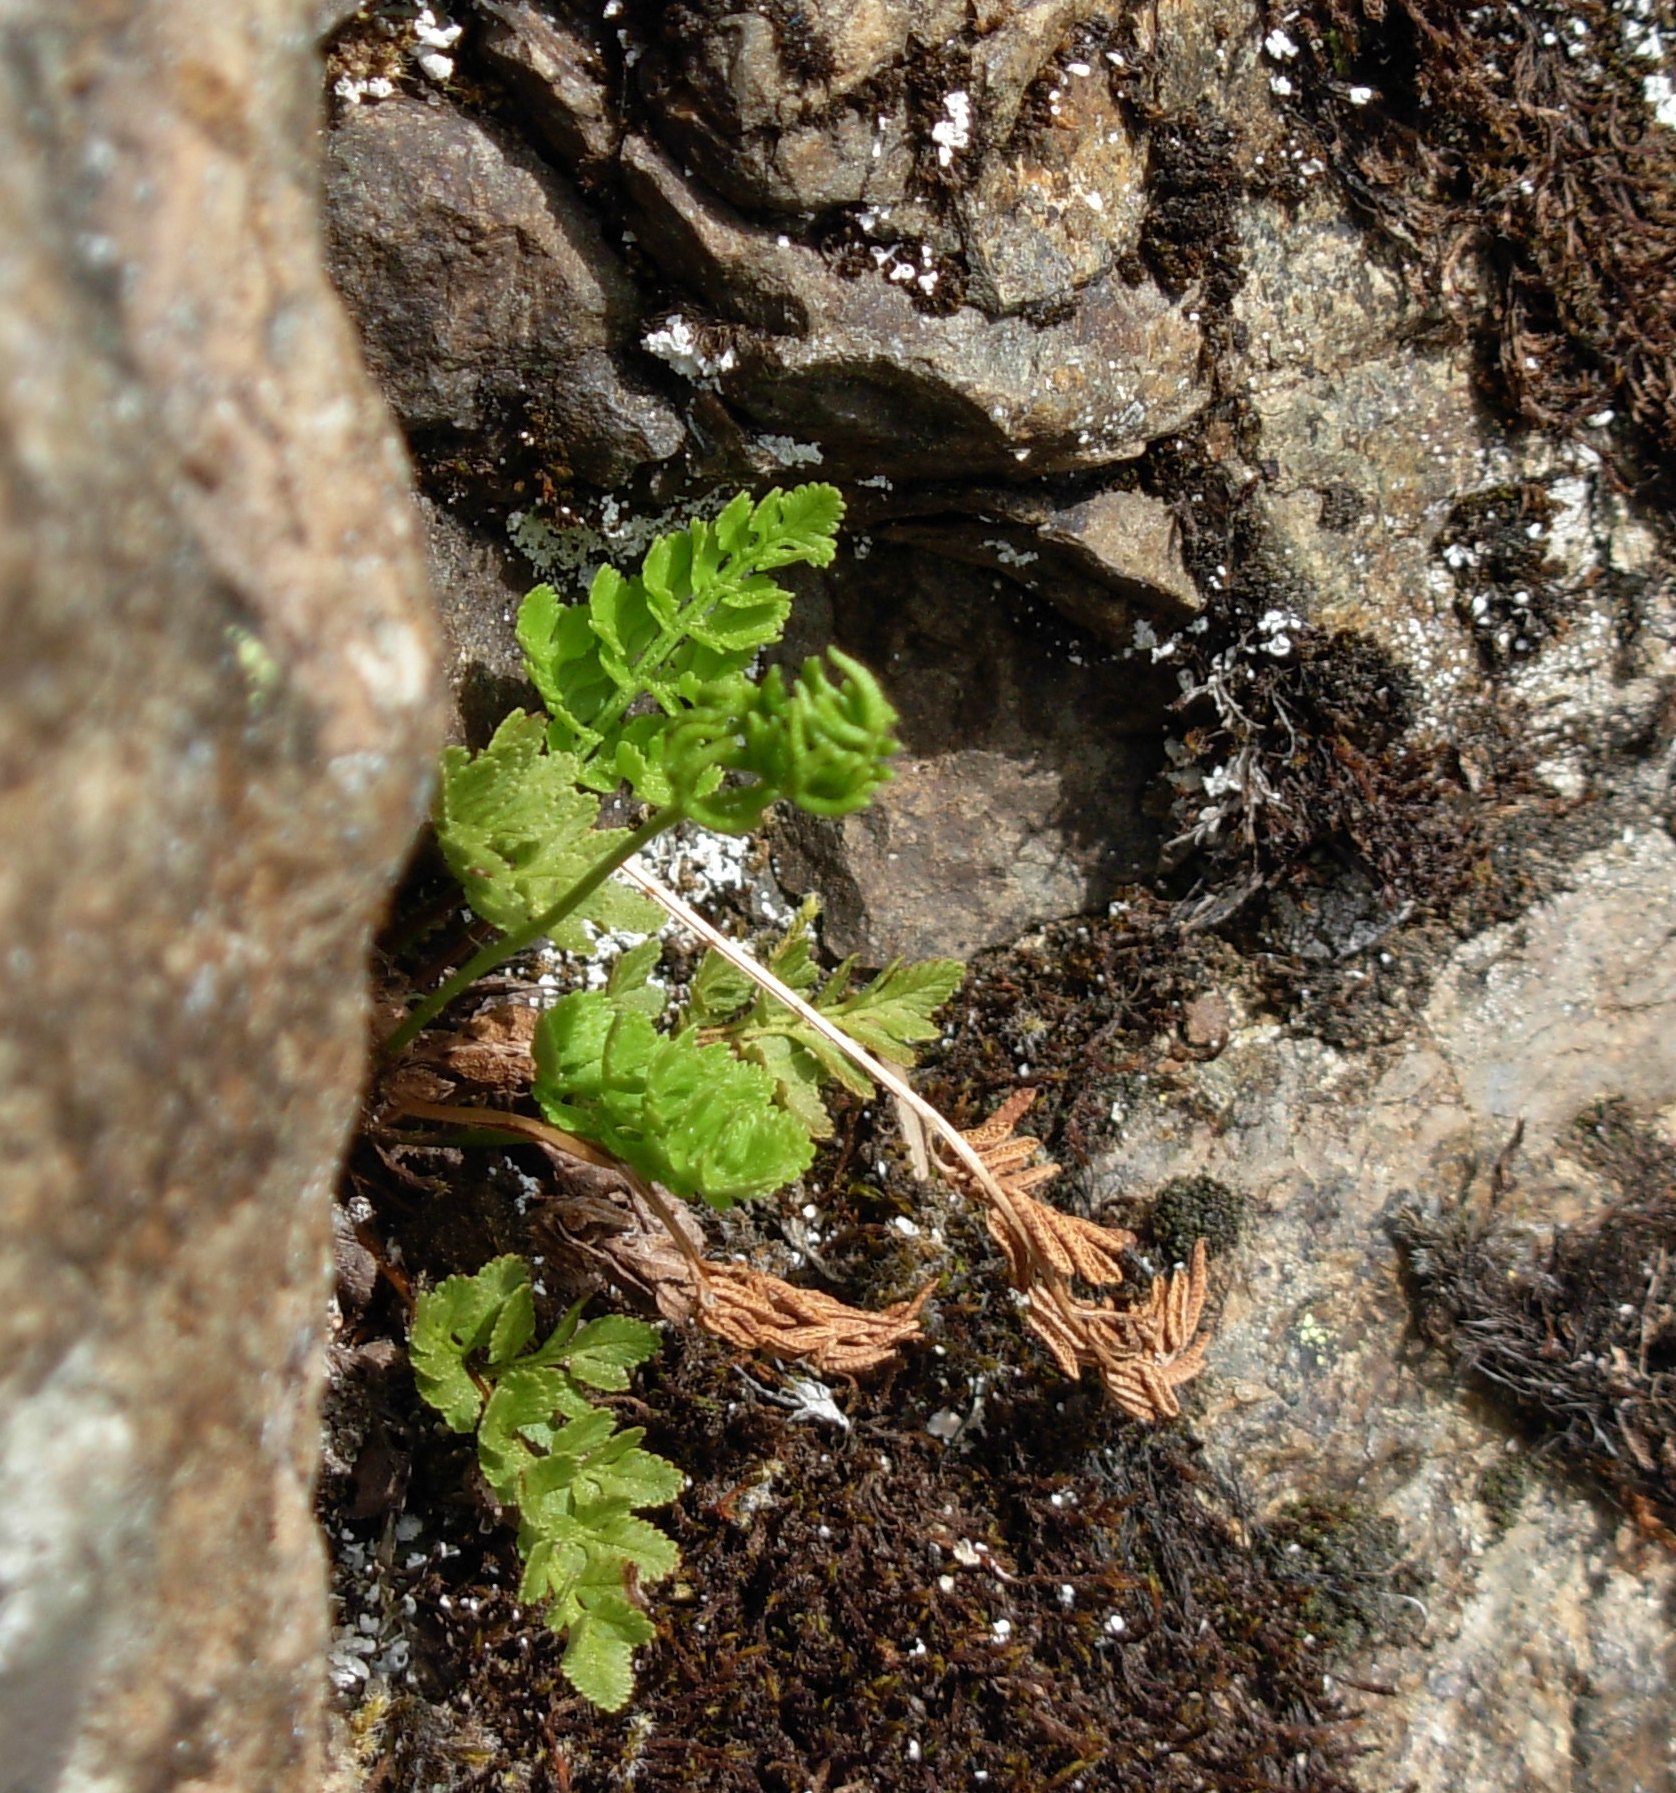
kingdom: Plantae
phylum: Tracheophyta
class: Polypodiopsida
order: Polypodiales
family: Pteridaceae
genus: Cryptogramma
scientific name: Cryptogramma acrostichoides
